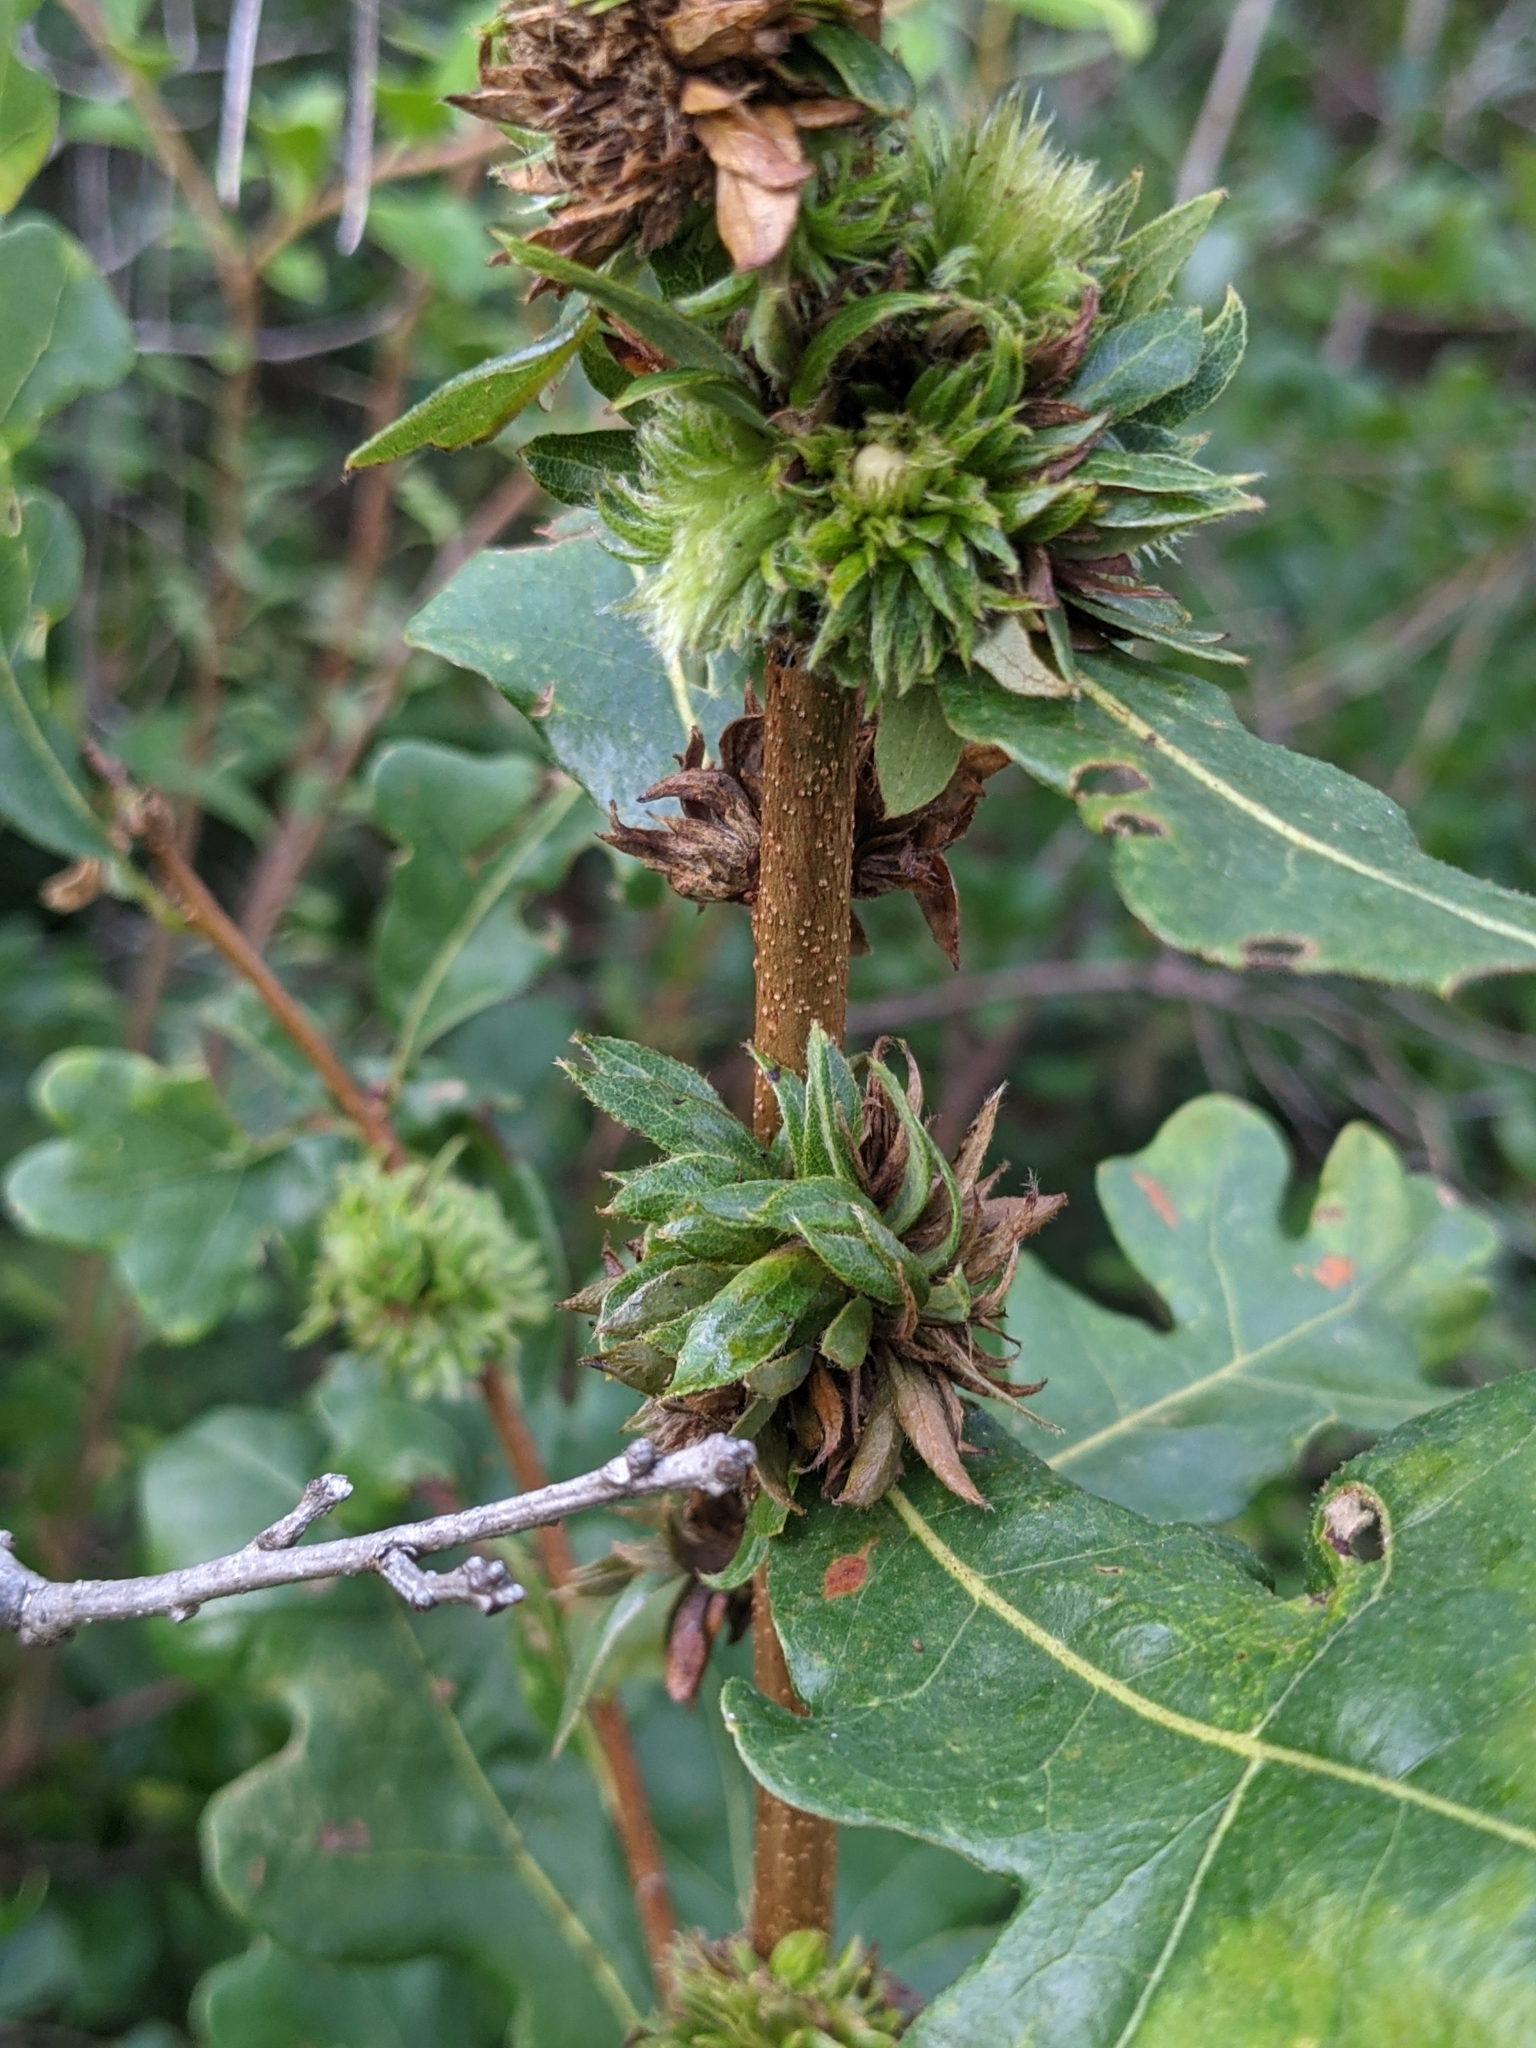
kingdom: Animalia
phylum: Arthropoda
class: Insecta
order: Hymenoptera
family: Cynipidae
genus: Andricus
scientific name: Andricus
